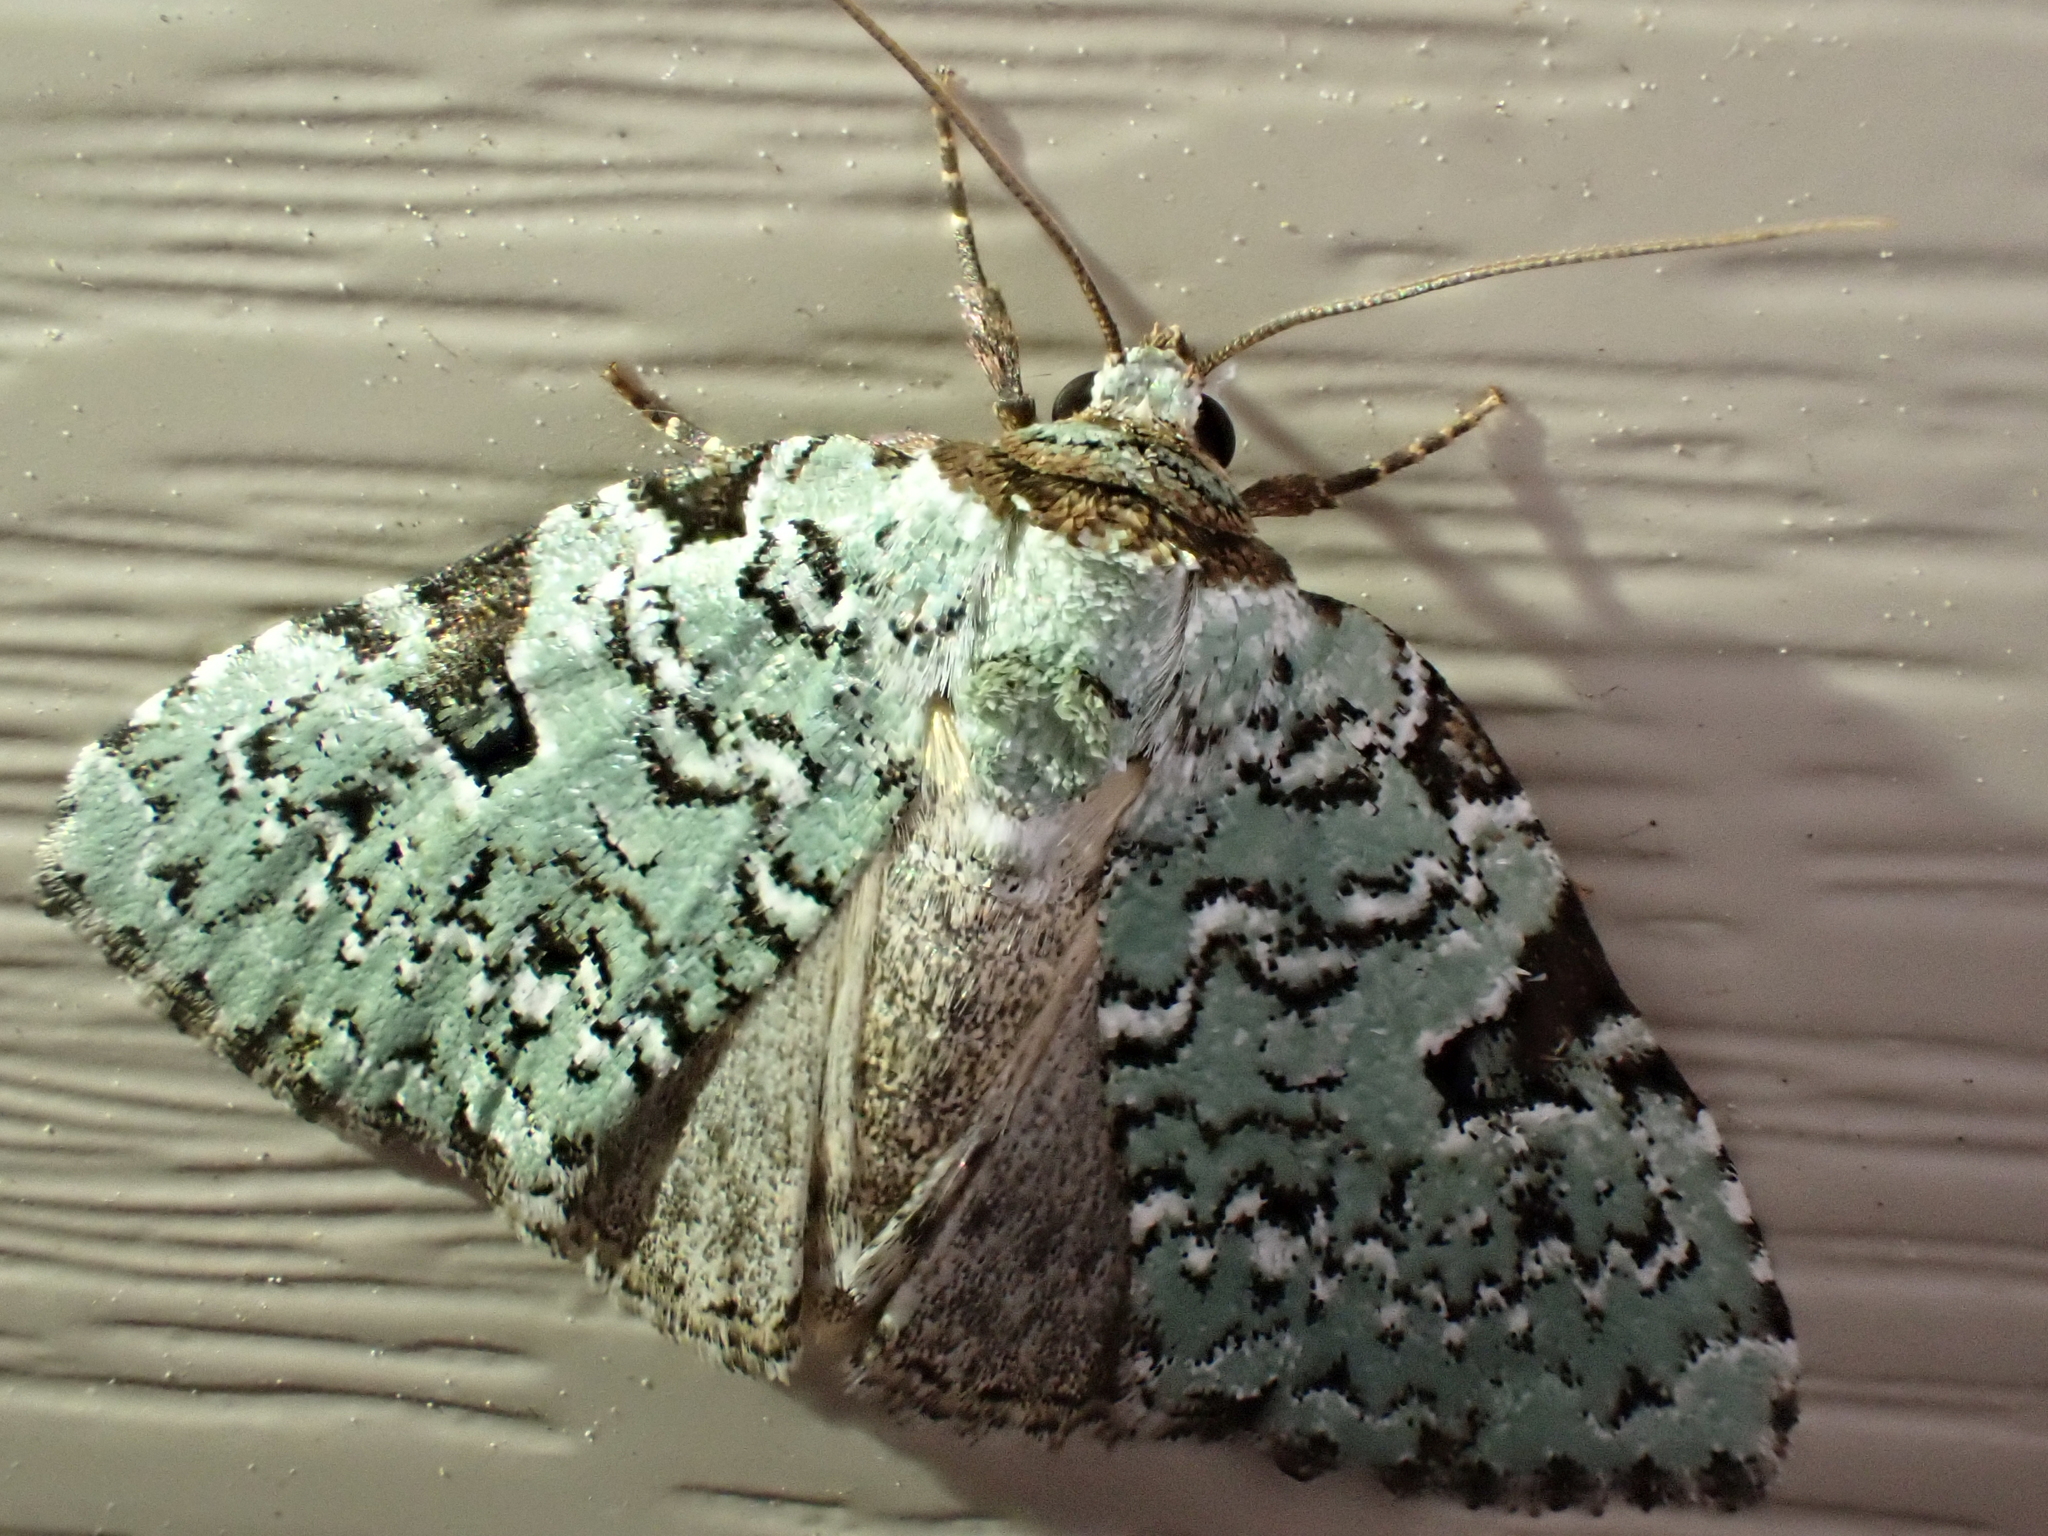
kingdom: Animalia
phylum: Arthropoda
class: Insecta
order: Lepidoptera
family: Noctuidae
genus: Leuconycta
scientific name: Leuconycta diphteroides
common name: Green leuconycta moth
